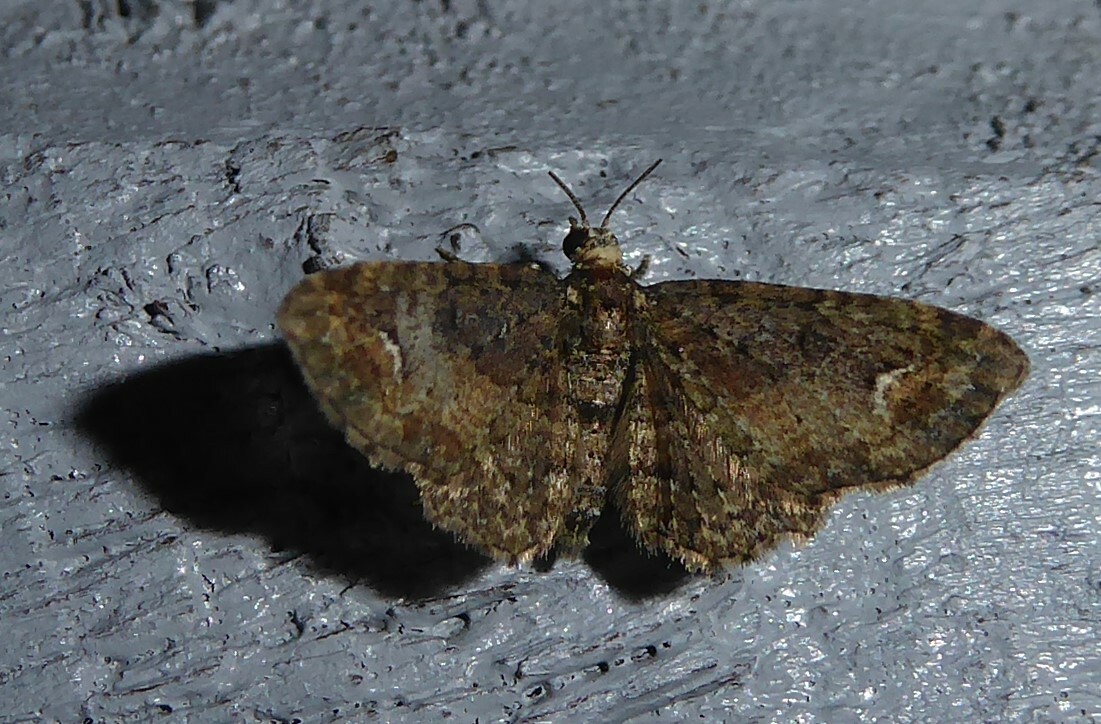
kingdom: Animalia
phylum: Arthropoda
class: Insecta
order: Lepidoptera
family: Geometridae
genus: Pasiphilodes
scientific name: Pasiphilodes testulata
